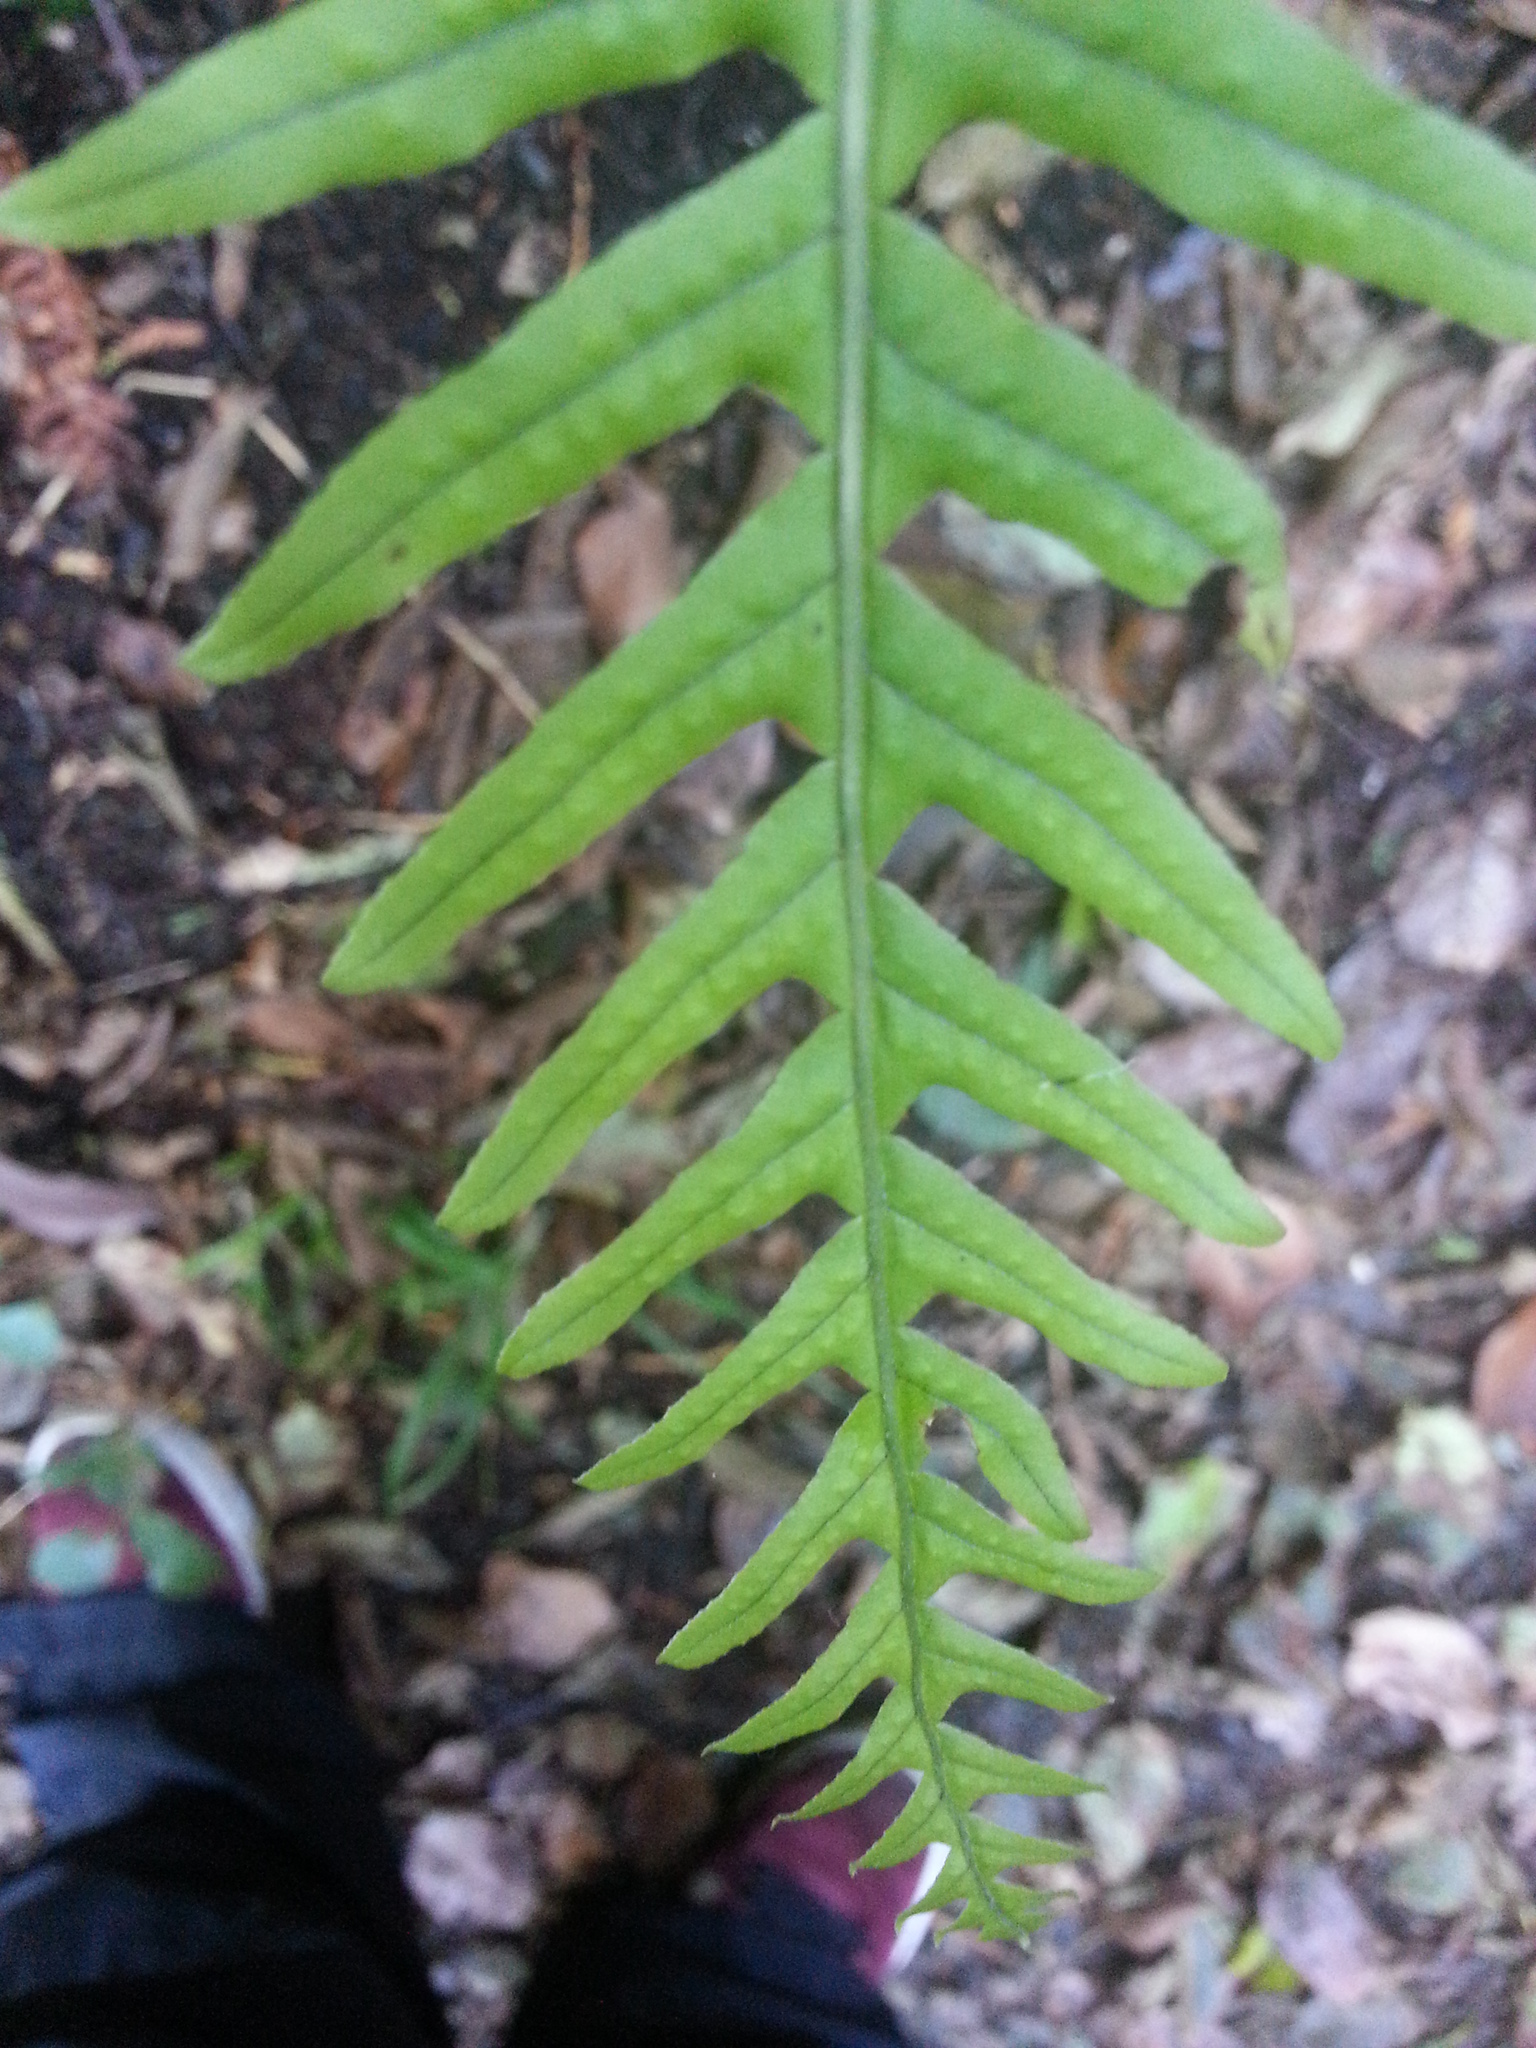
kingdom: Plantae
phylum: Tracheophyta
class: Polypodiopsida
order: Polypodiales
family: Polypodiaceae
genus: Polypodium
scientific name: Polypodium glycyrrhiza
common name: Licorice fern
